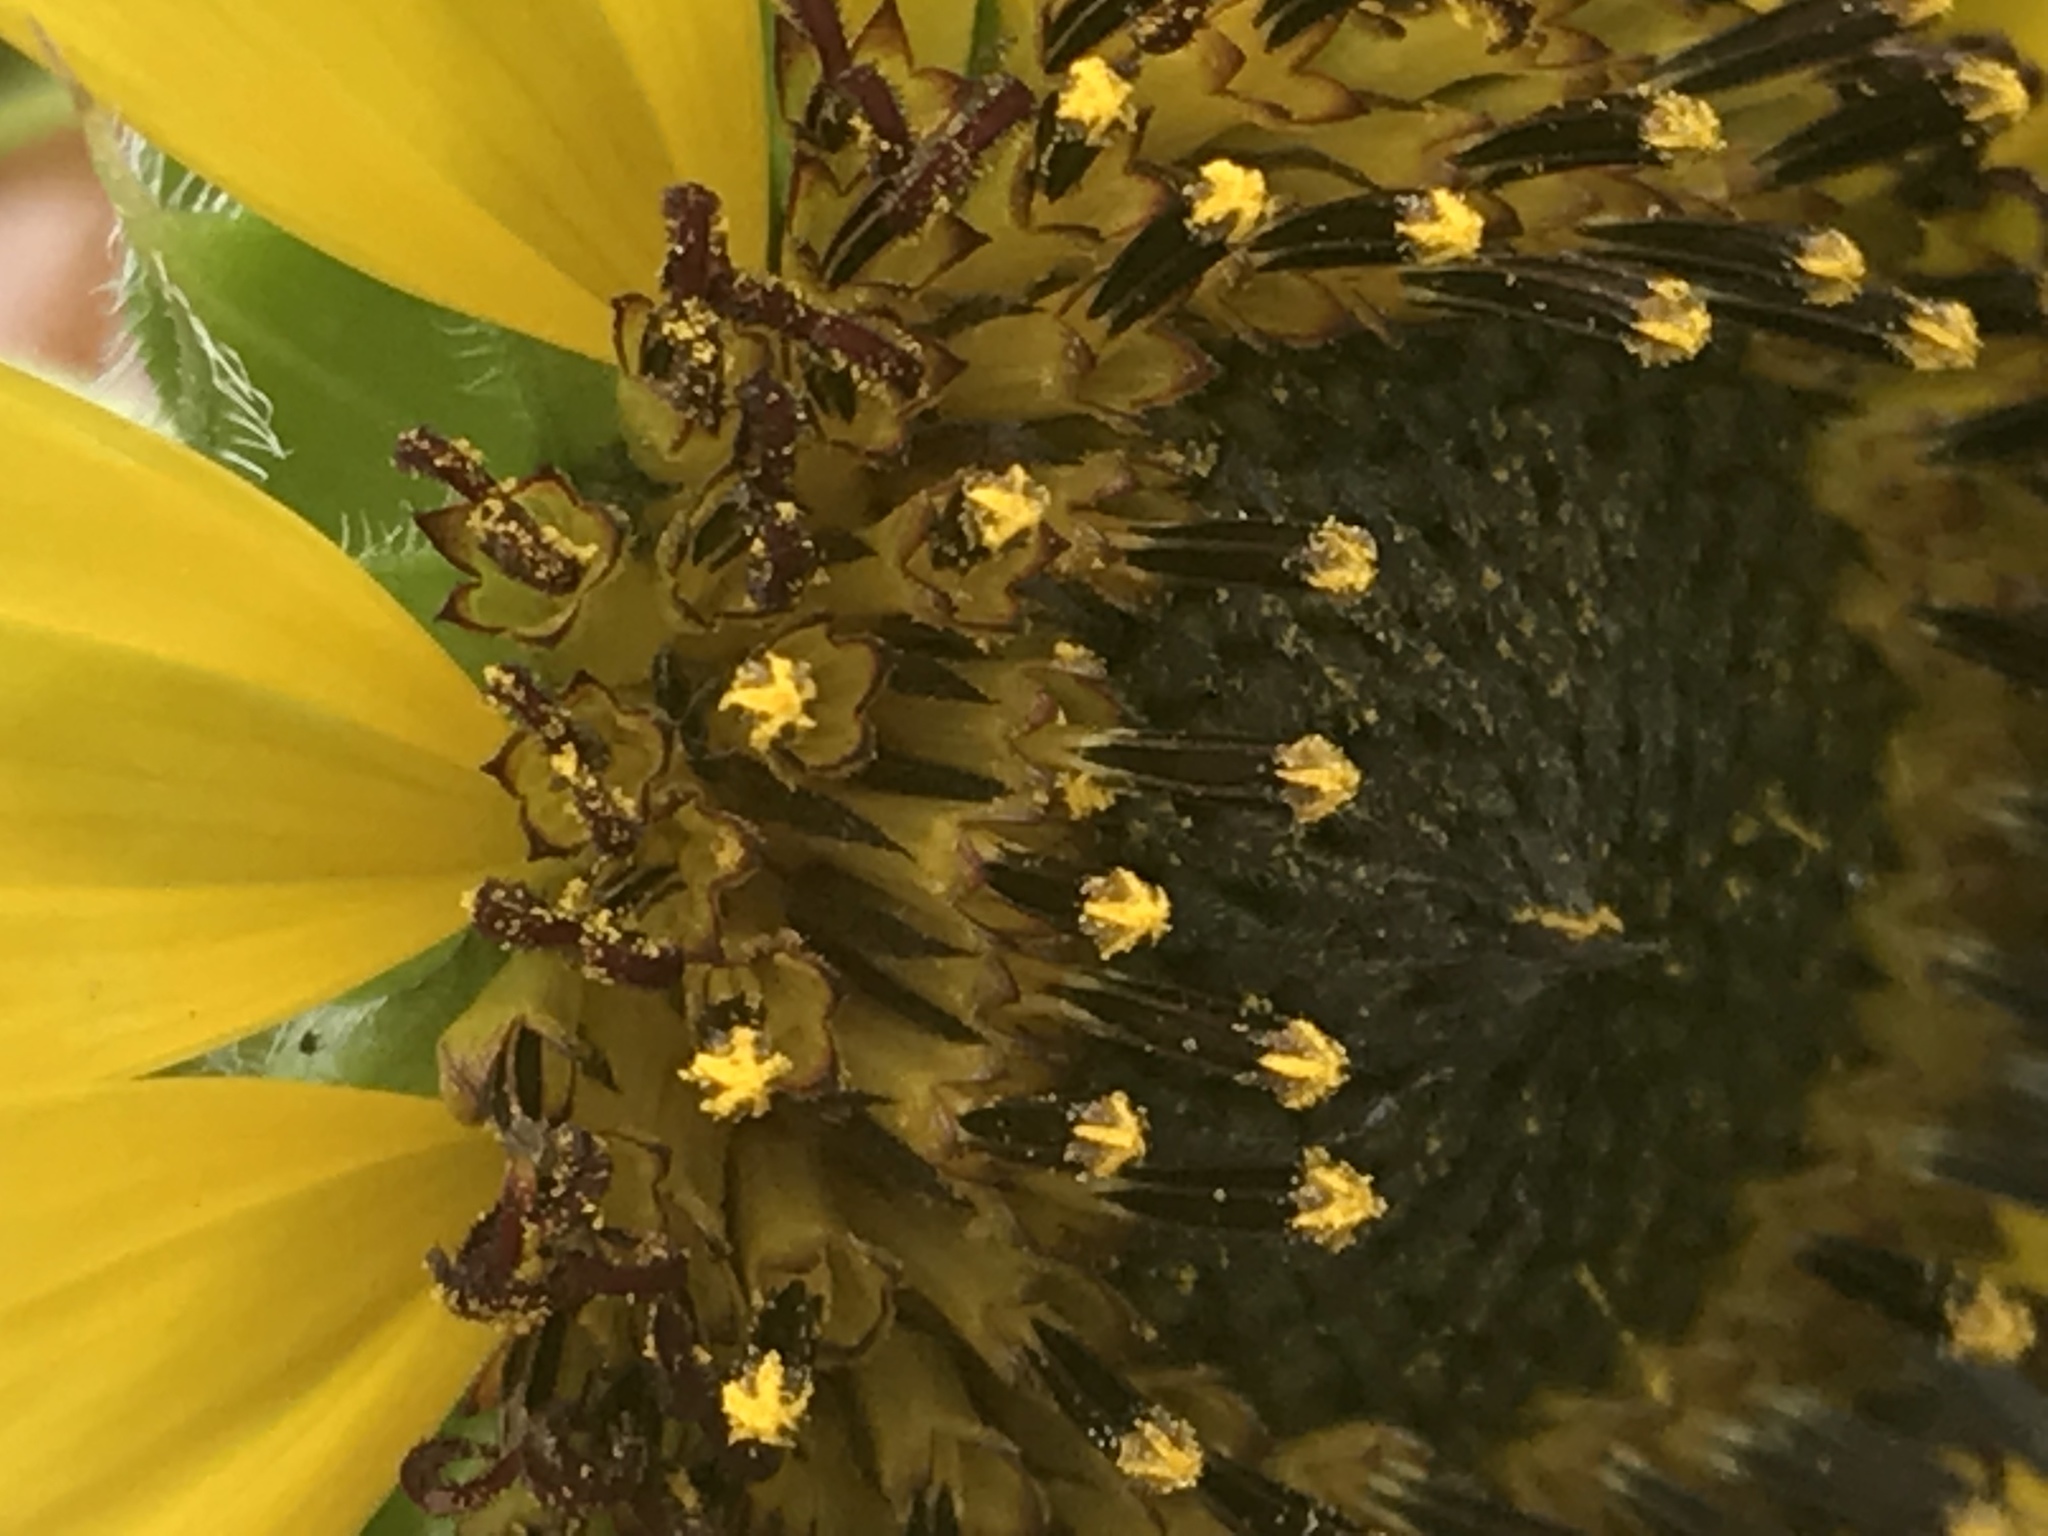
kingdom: Plantae
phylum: Tracheophyta
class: Magnoliopsida
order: Asterales
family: Asteraceae
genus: Helianthus
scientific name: Helianthus annuus
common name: Sunflower
